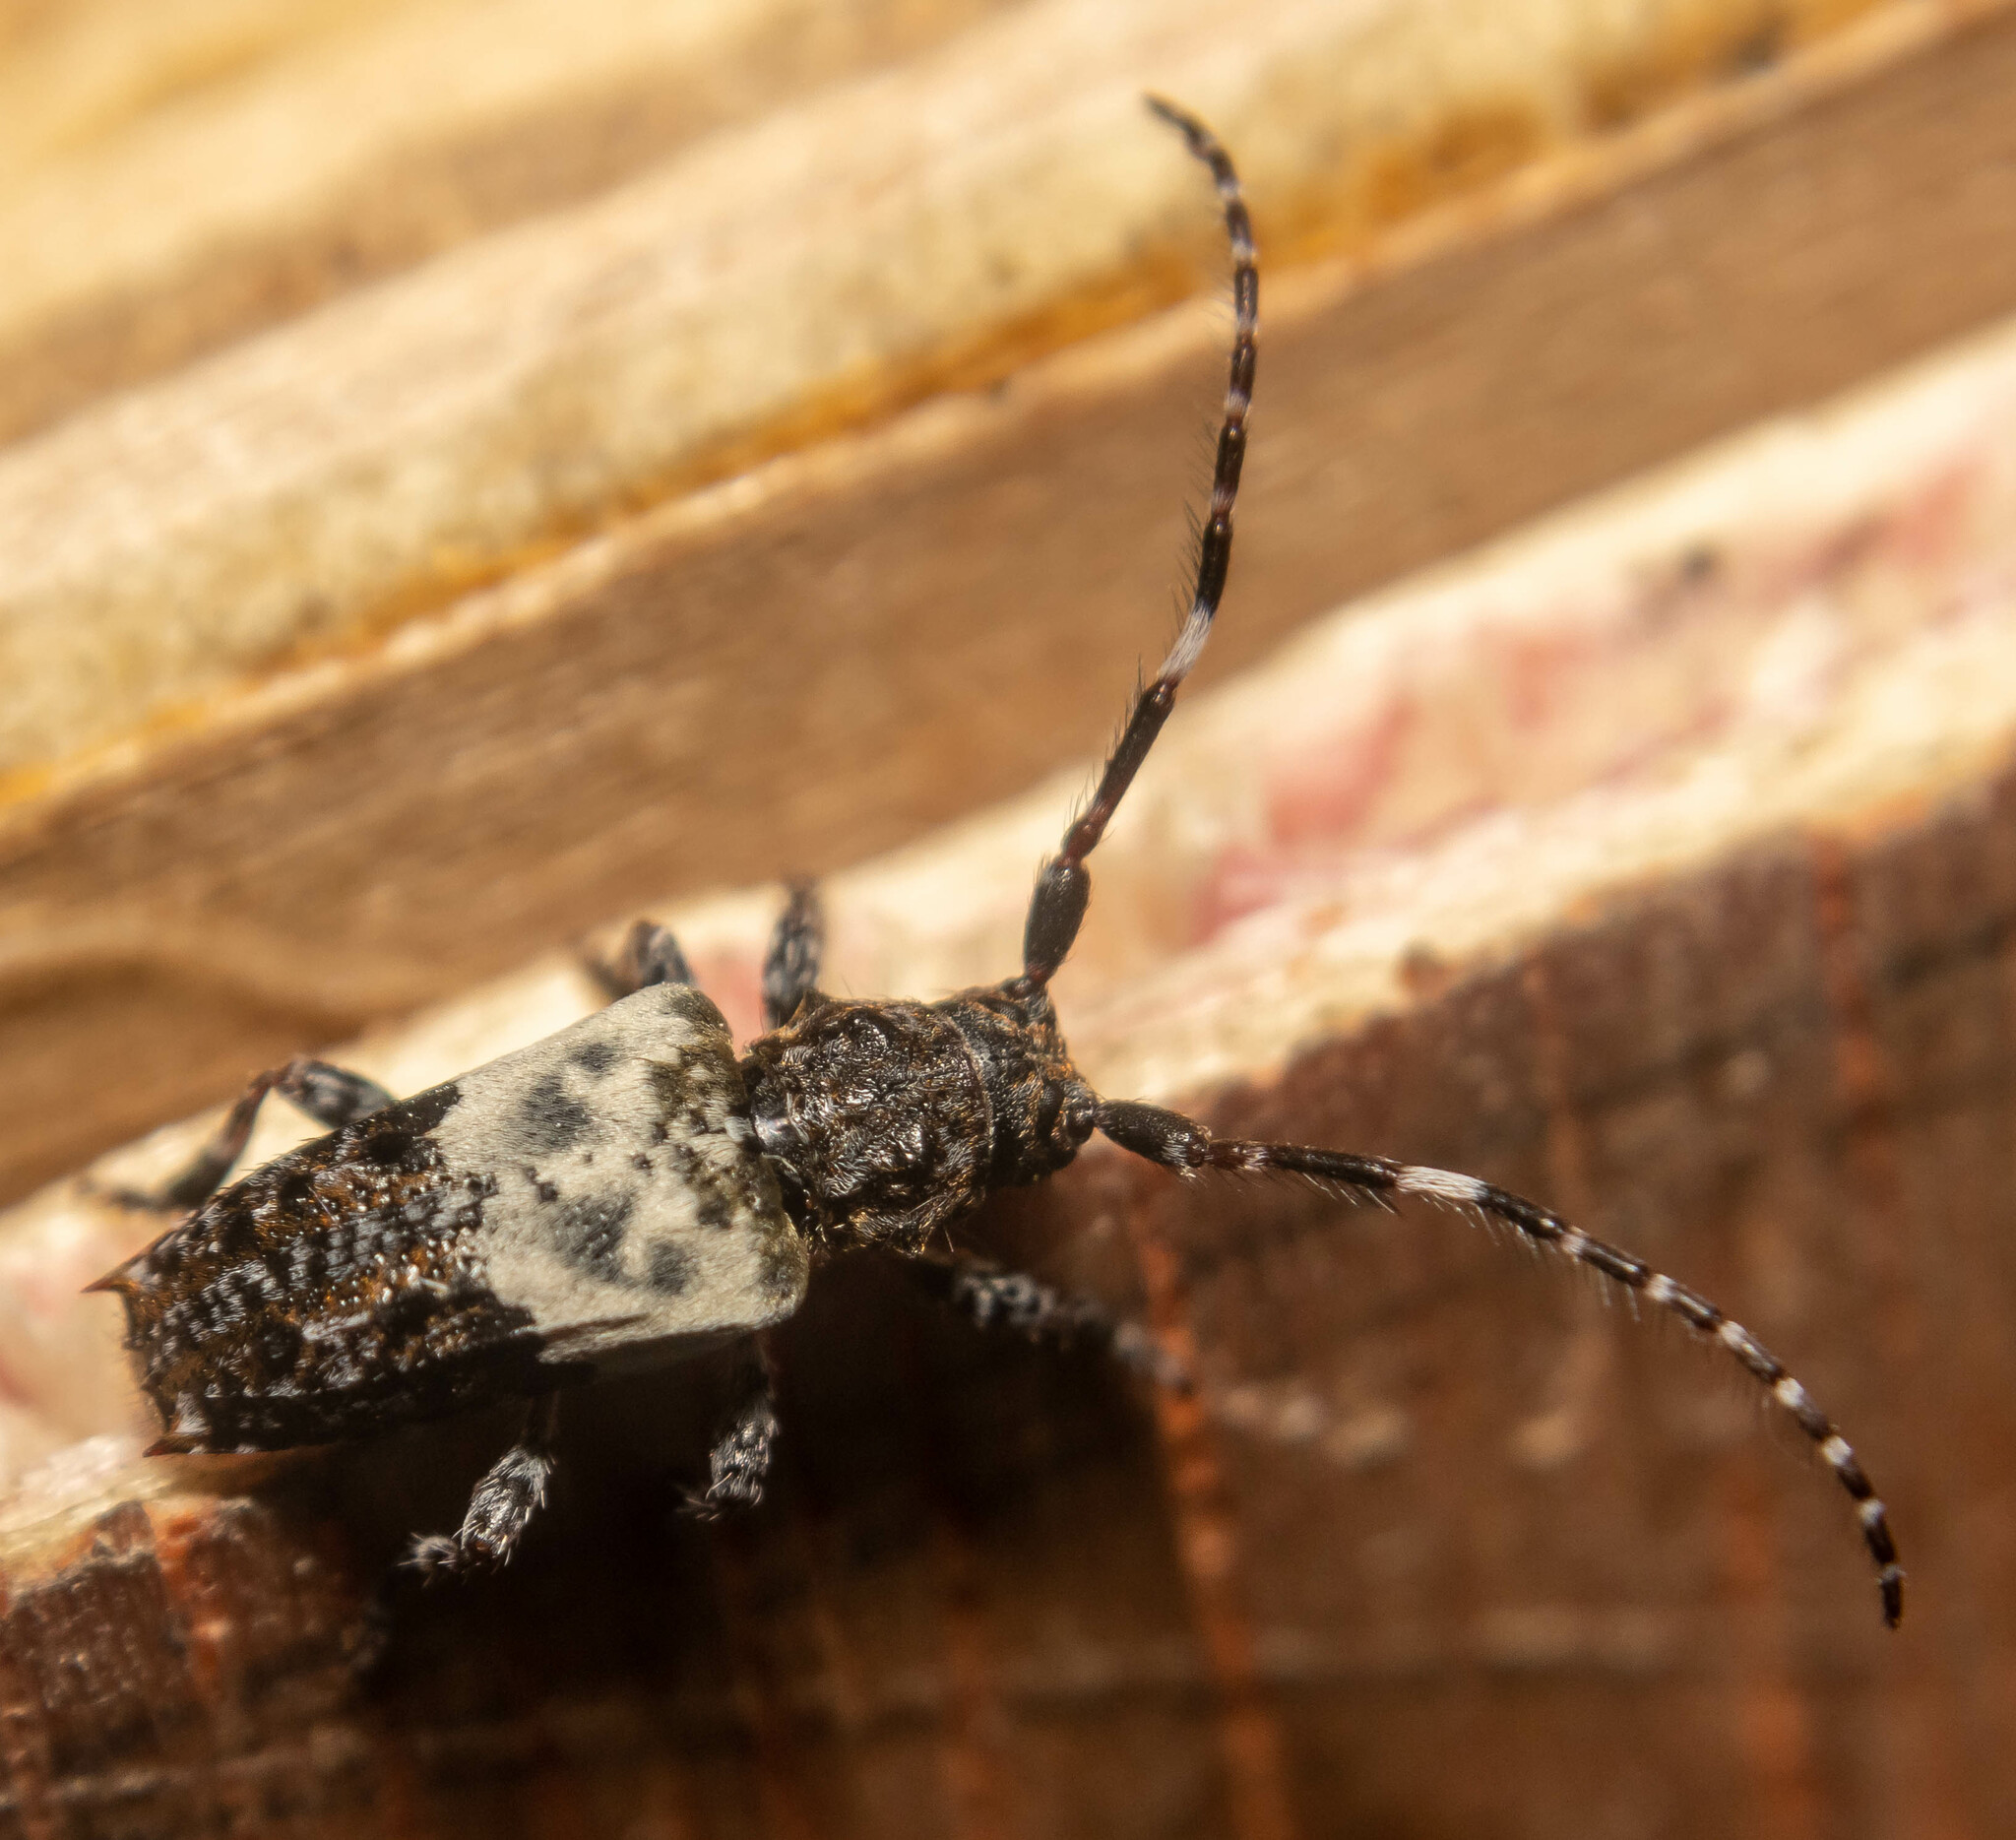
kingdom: Animalia
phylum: Arthropoda
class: Insecta
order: Coleoptera
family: Cerambycidae
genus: Pogonocherus
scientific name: Pogonocherus hispidulus
